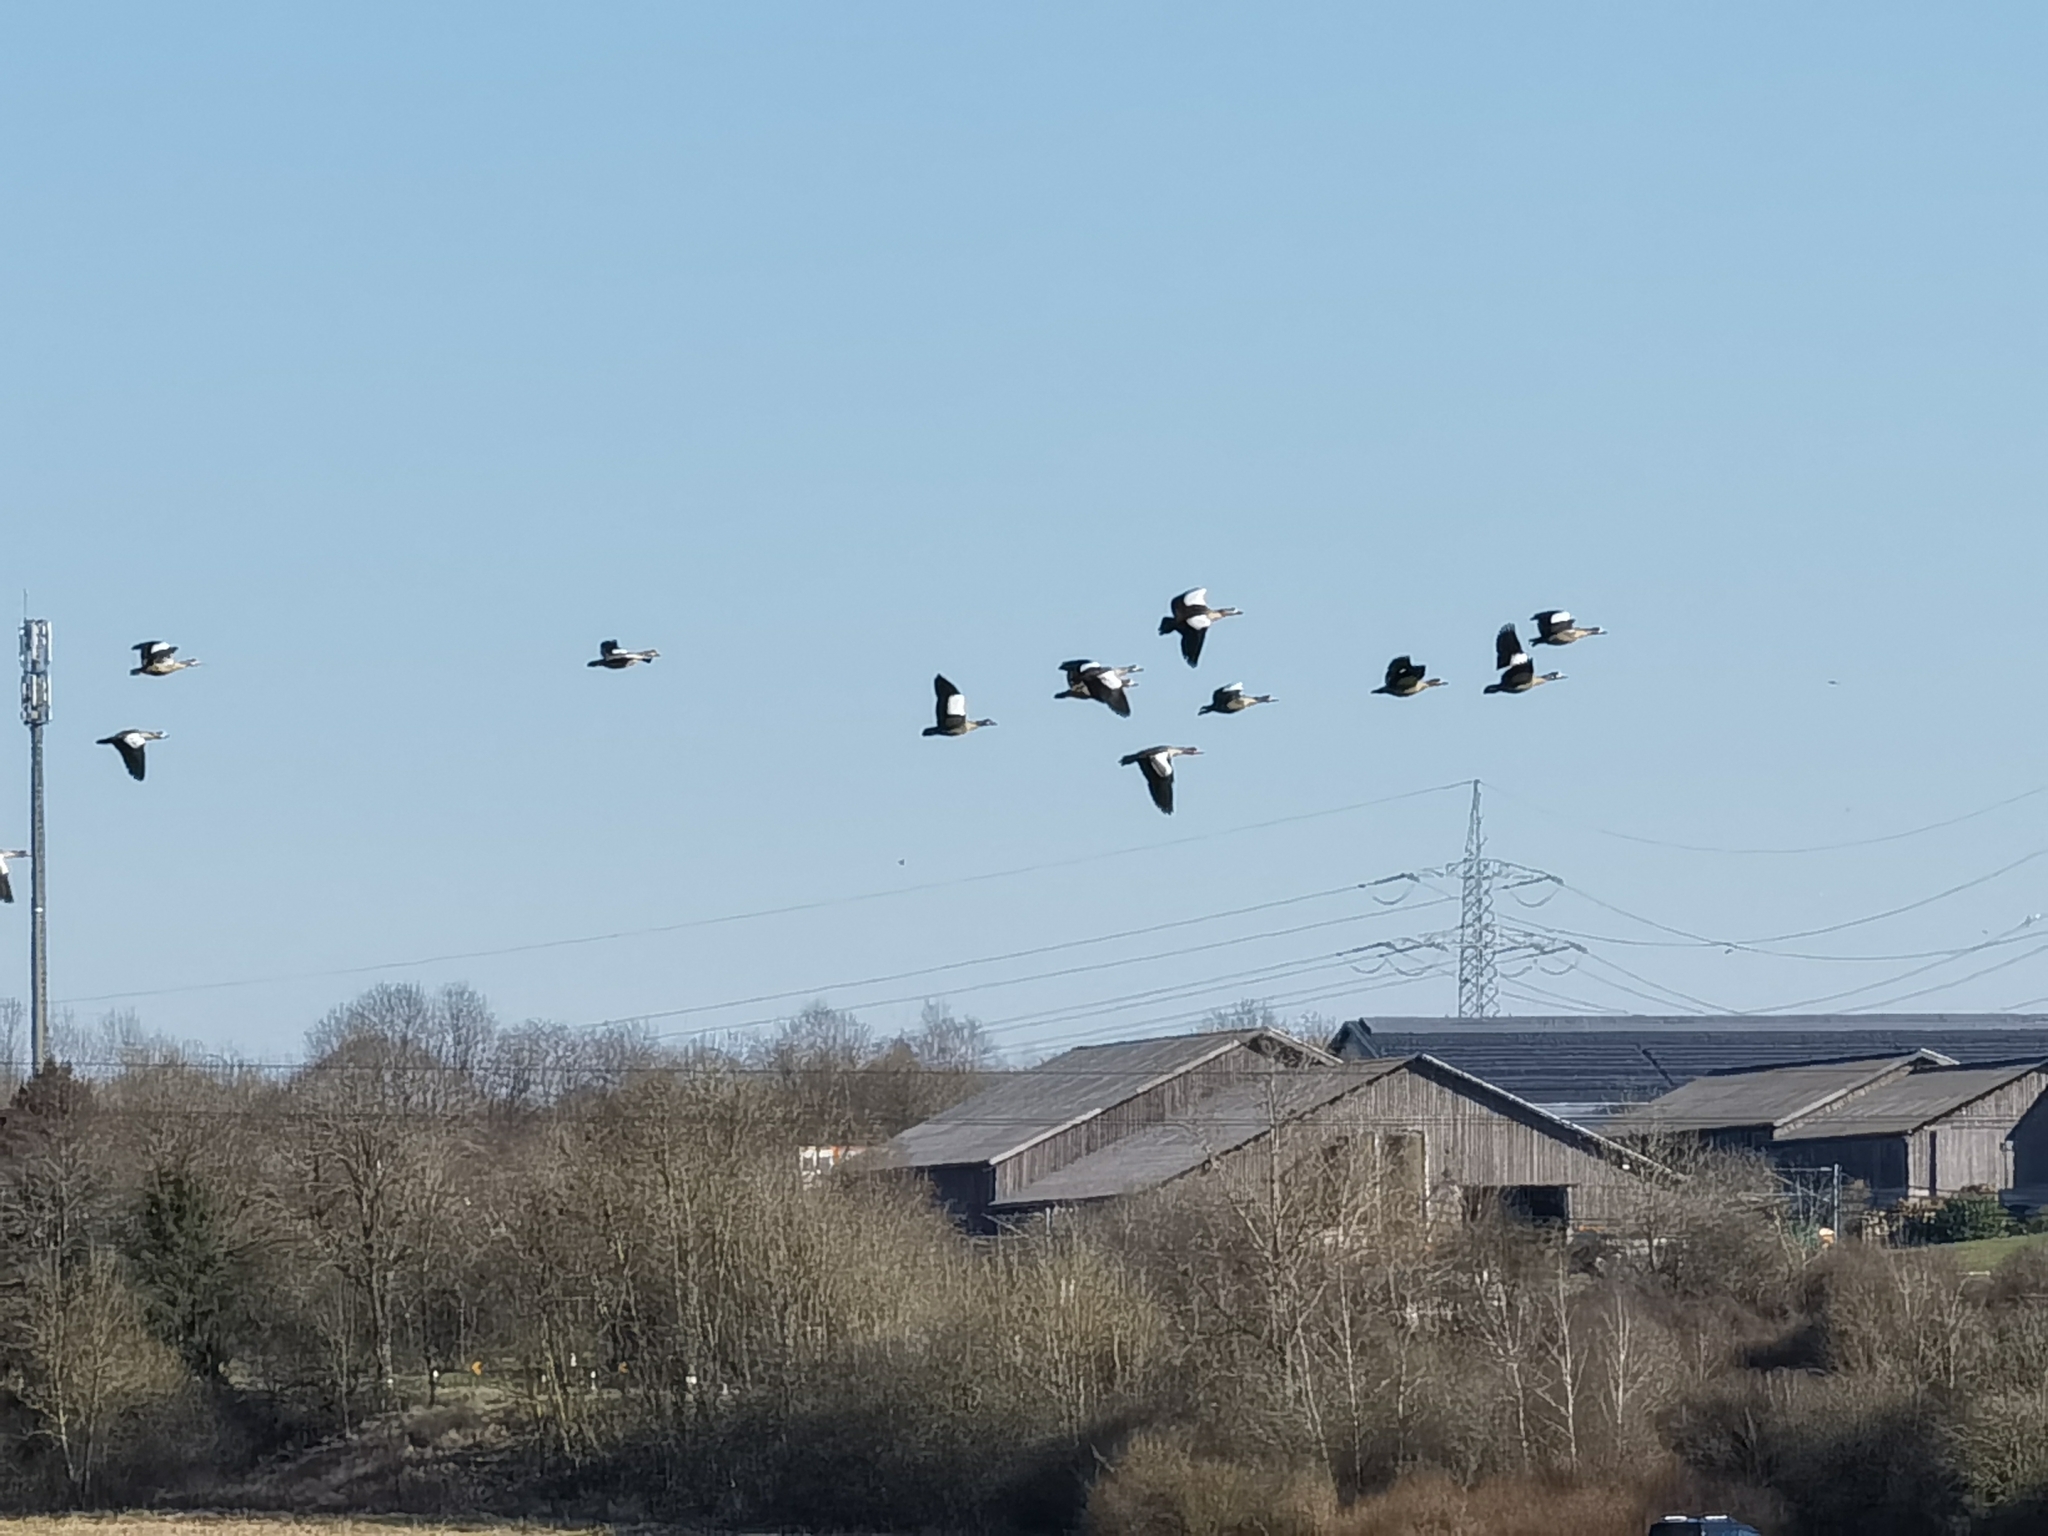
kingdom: Animalia
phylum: Chordata
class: Aves
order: Anseriformes
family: Anatidae
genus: Alopochen
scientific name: Alopochen aegyptiaca
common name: Egyptian goose
